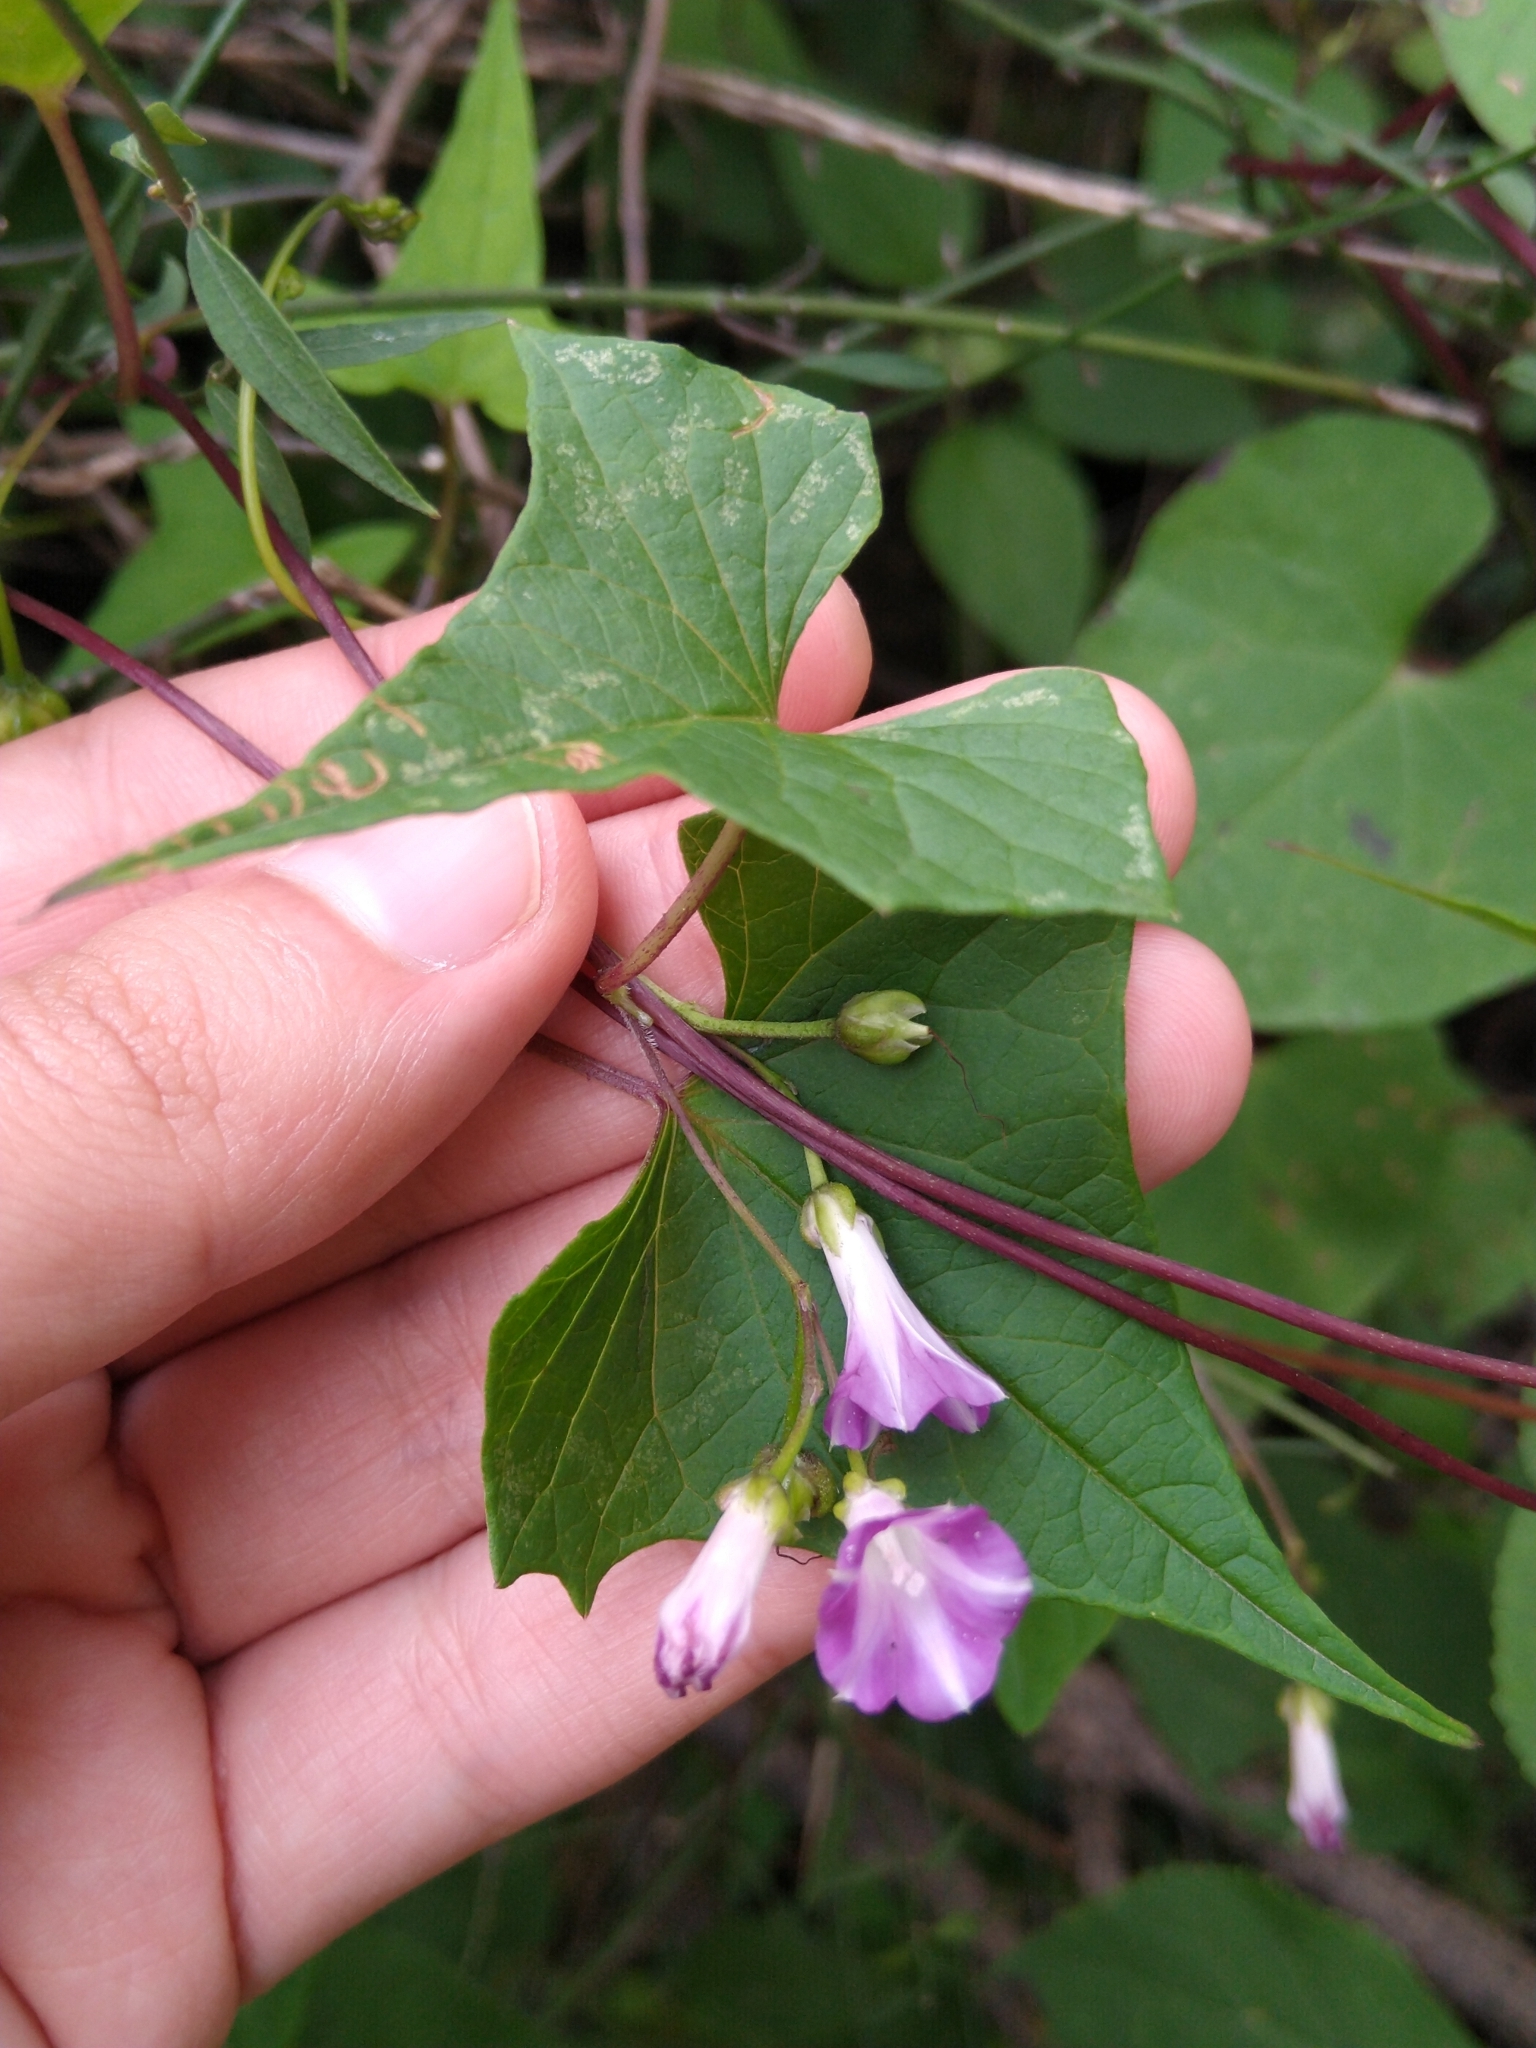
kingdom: Plantae
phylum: Tracheophyta
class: Magnoliopsida
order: Solanales
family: Convolvulaceae
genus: Ipomoea
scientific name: Ipomoea dumetorum
